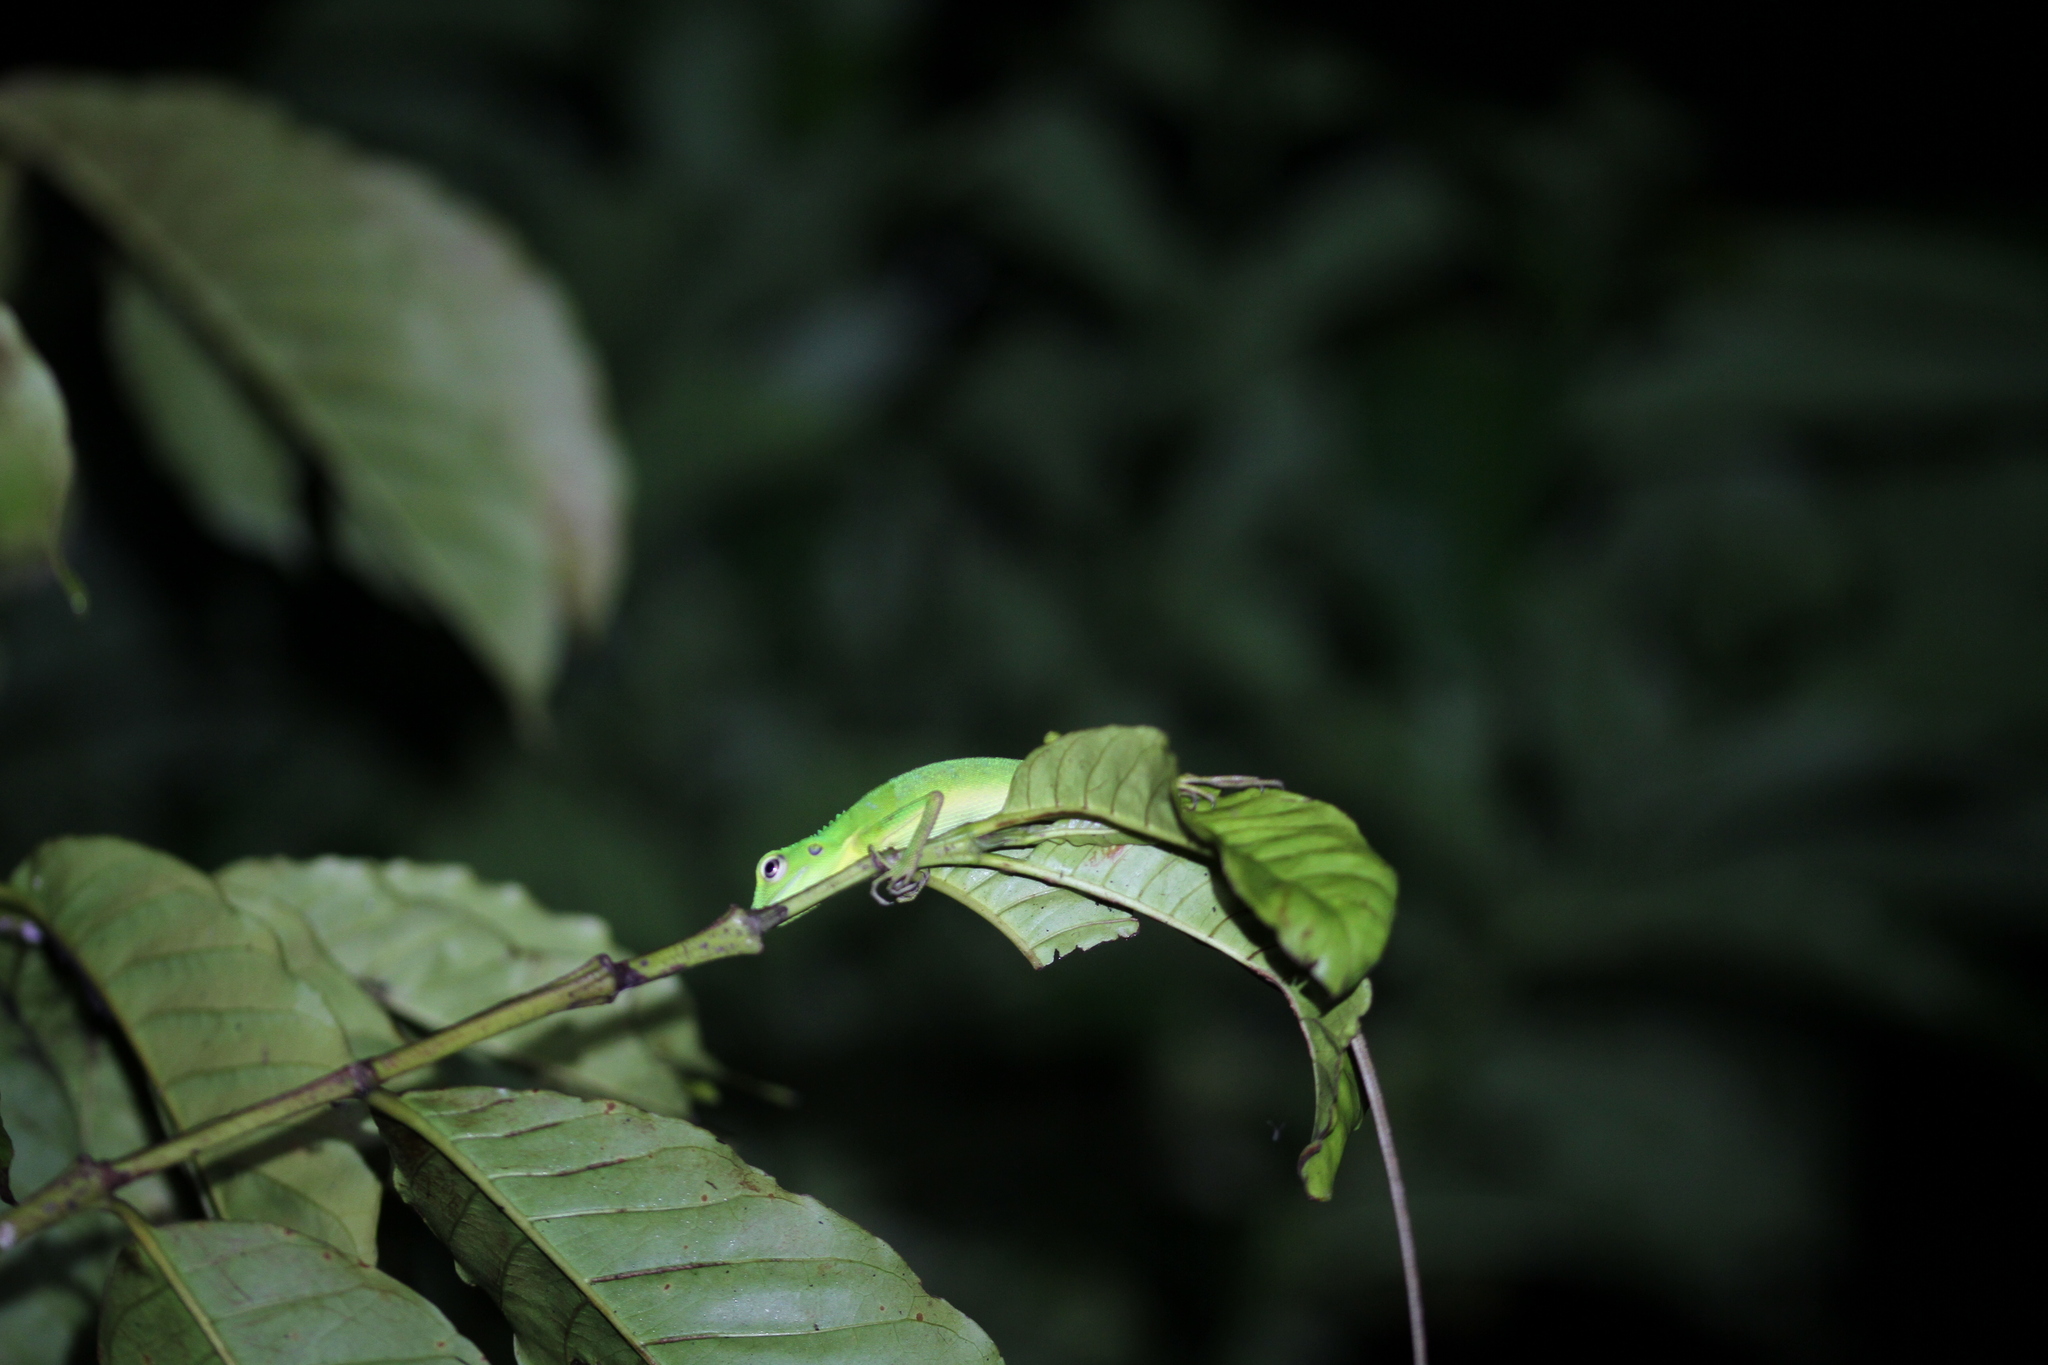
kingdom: Animalia
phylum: Chordata
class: Squamata
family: Agamidae
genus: Bronchocela
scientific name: Bronchocela cristatella
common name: Green crested lizard
